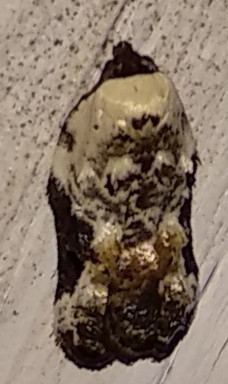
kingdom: Animalia
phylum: Arthropoda
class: Insecta
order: Lepidoptera
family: Tortricidae
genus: Acleris
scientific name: Acleris nivisellana
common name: Snowy-shouldered acleris moth
